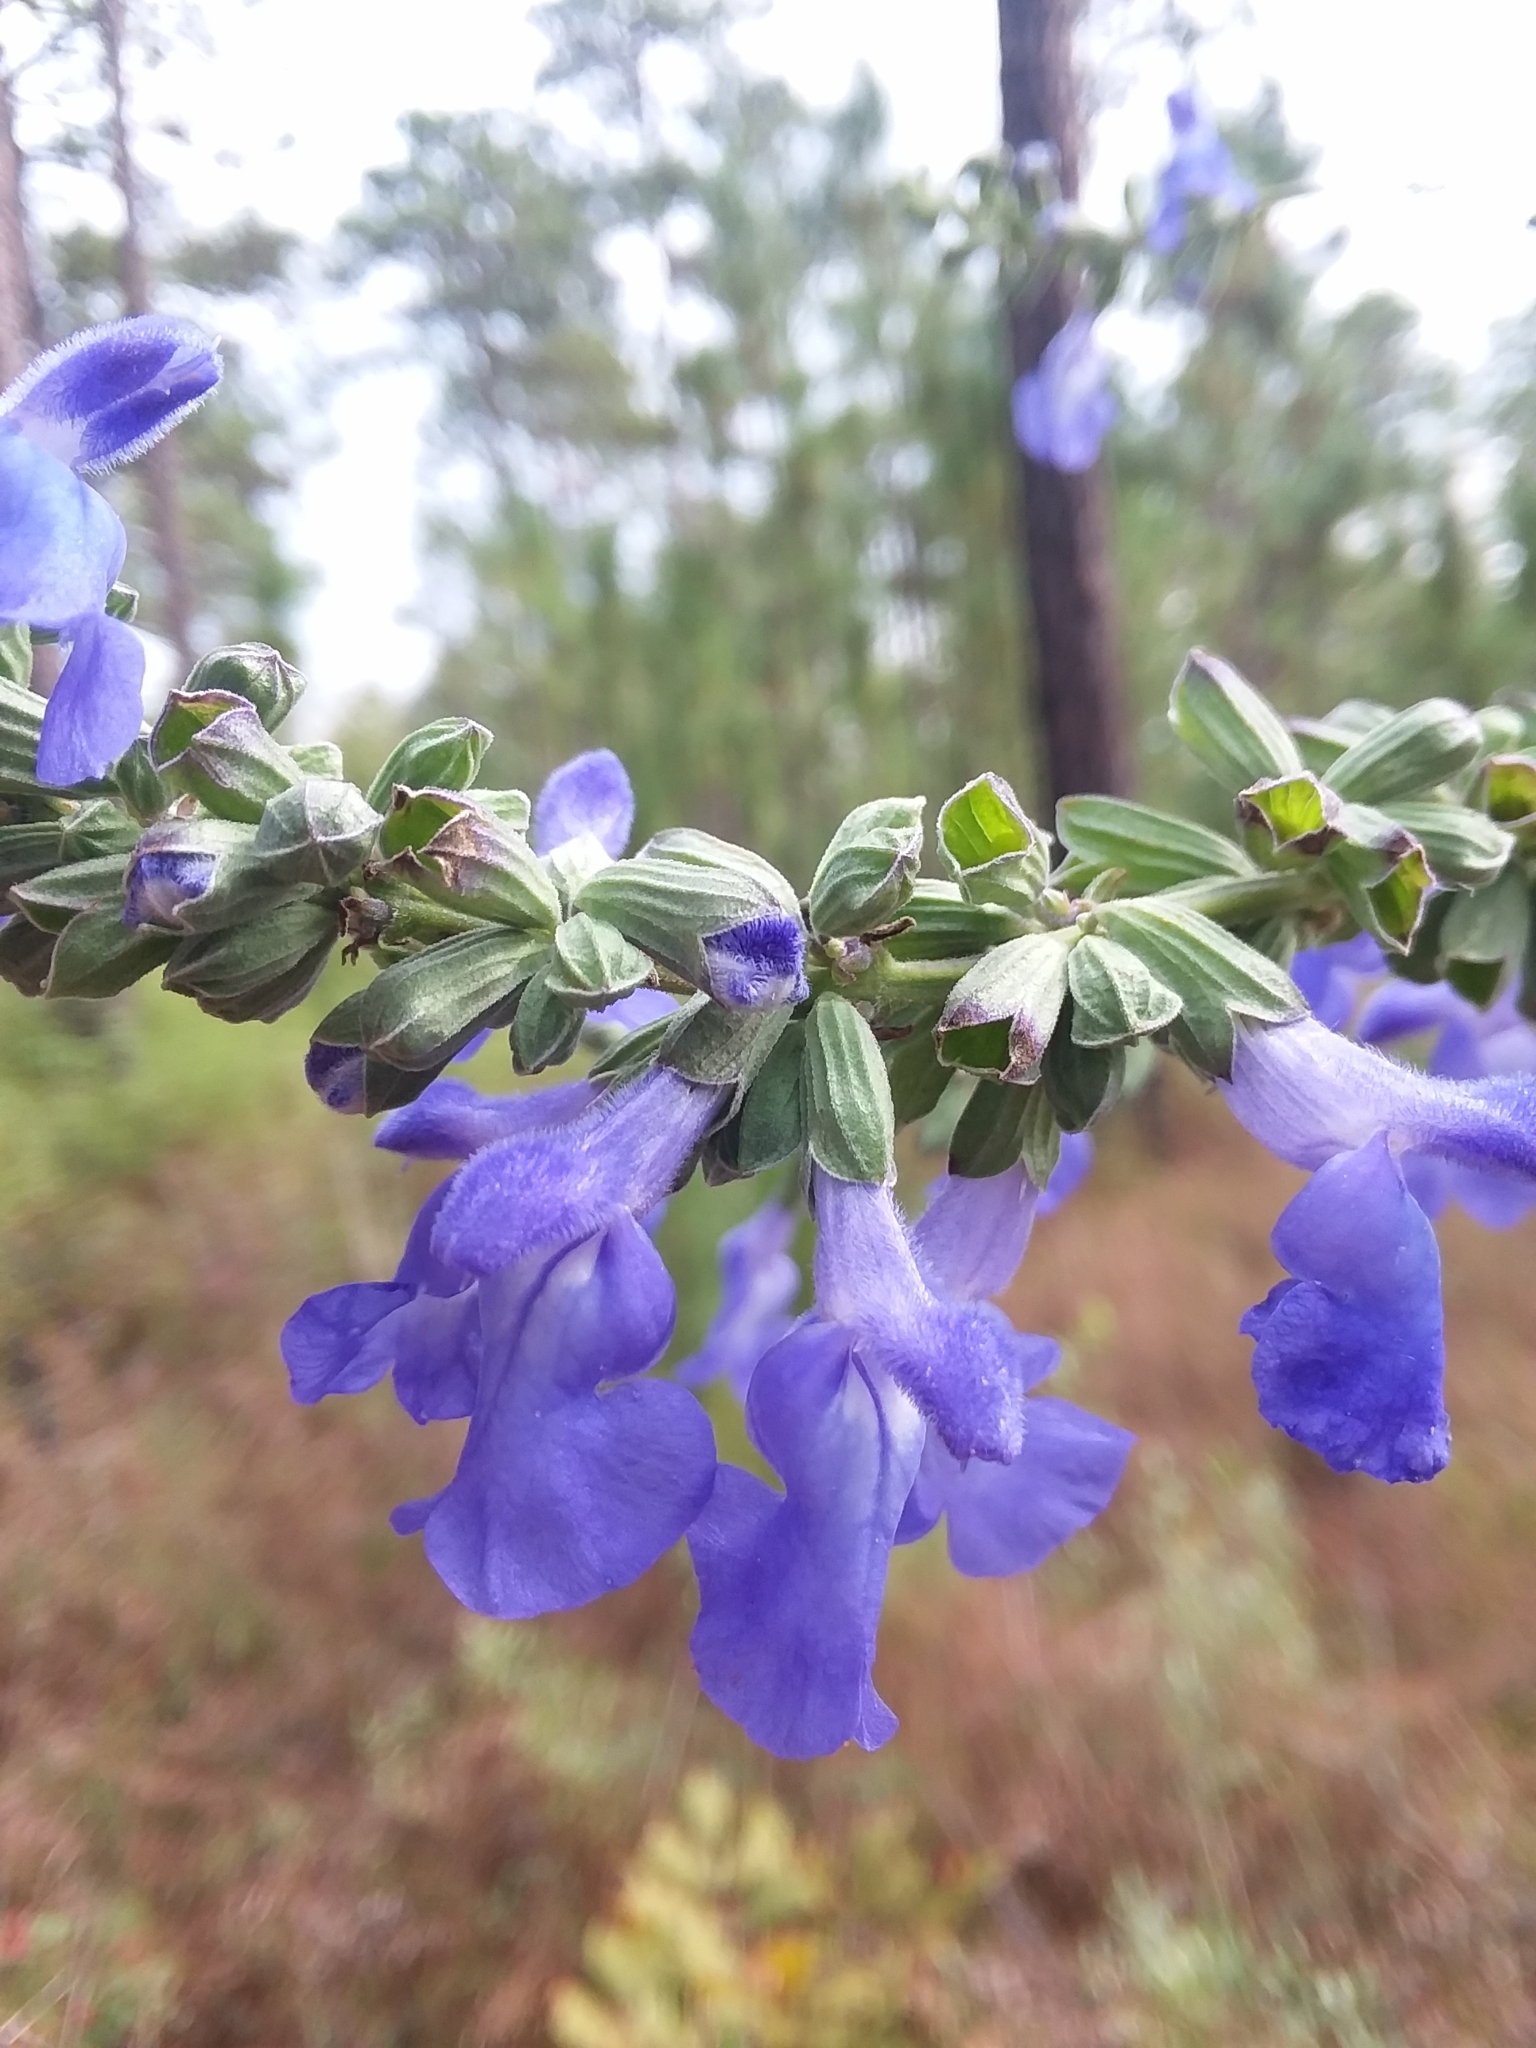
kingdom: Plantae
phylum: Tracheophyta
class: Magnoliopsida
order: Lamiales
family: Lamiaceae
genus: Salvia
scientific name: Salvia azurea
